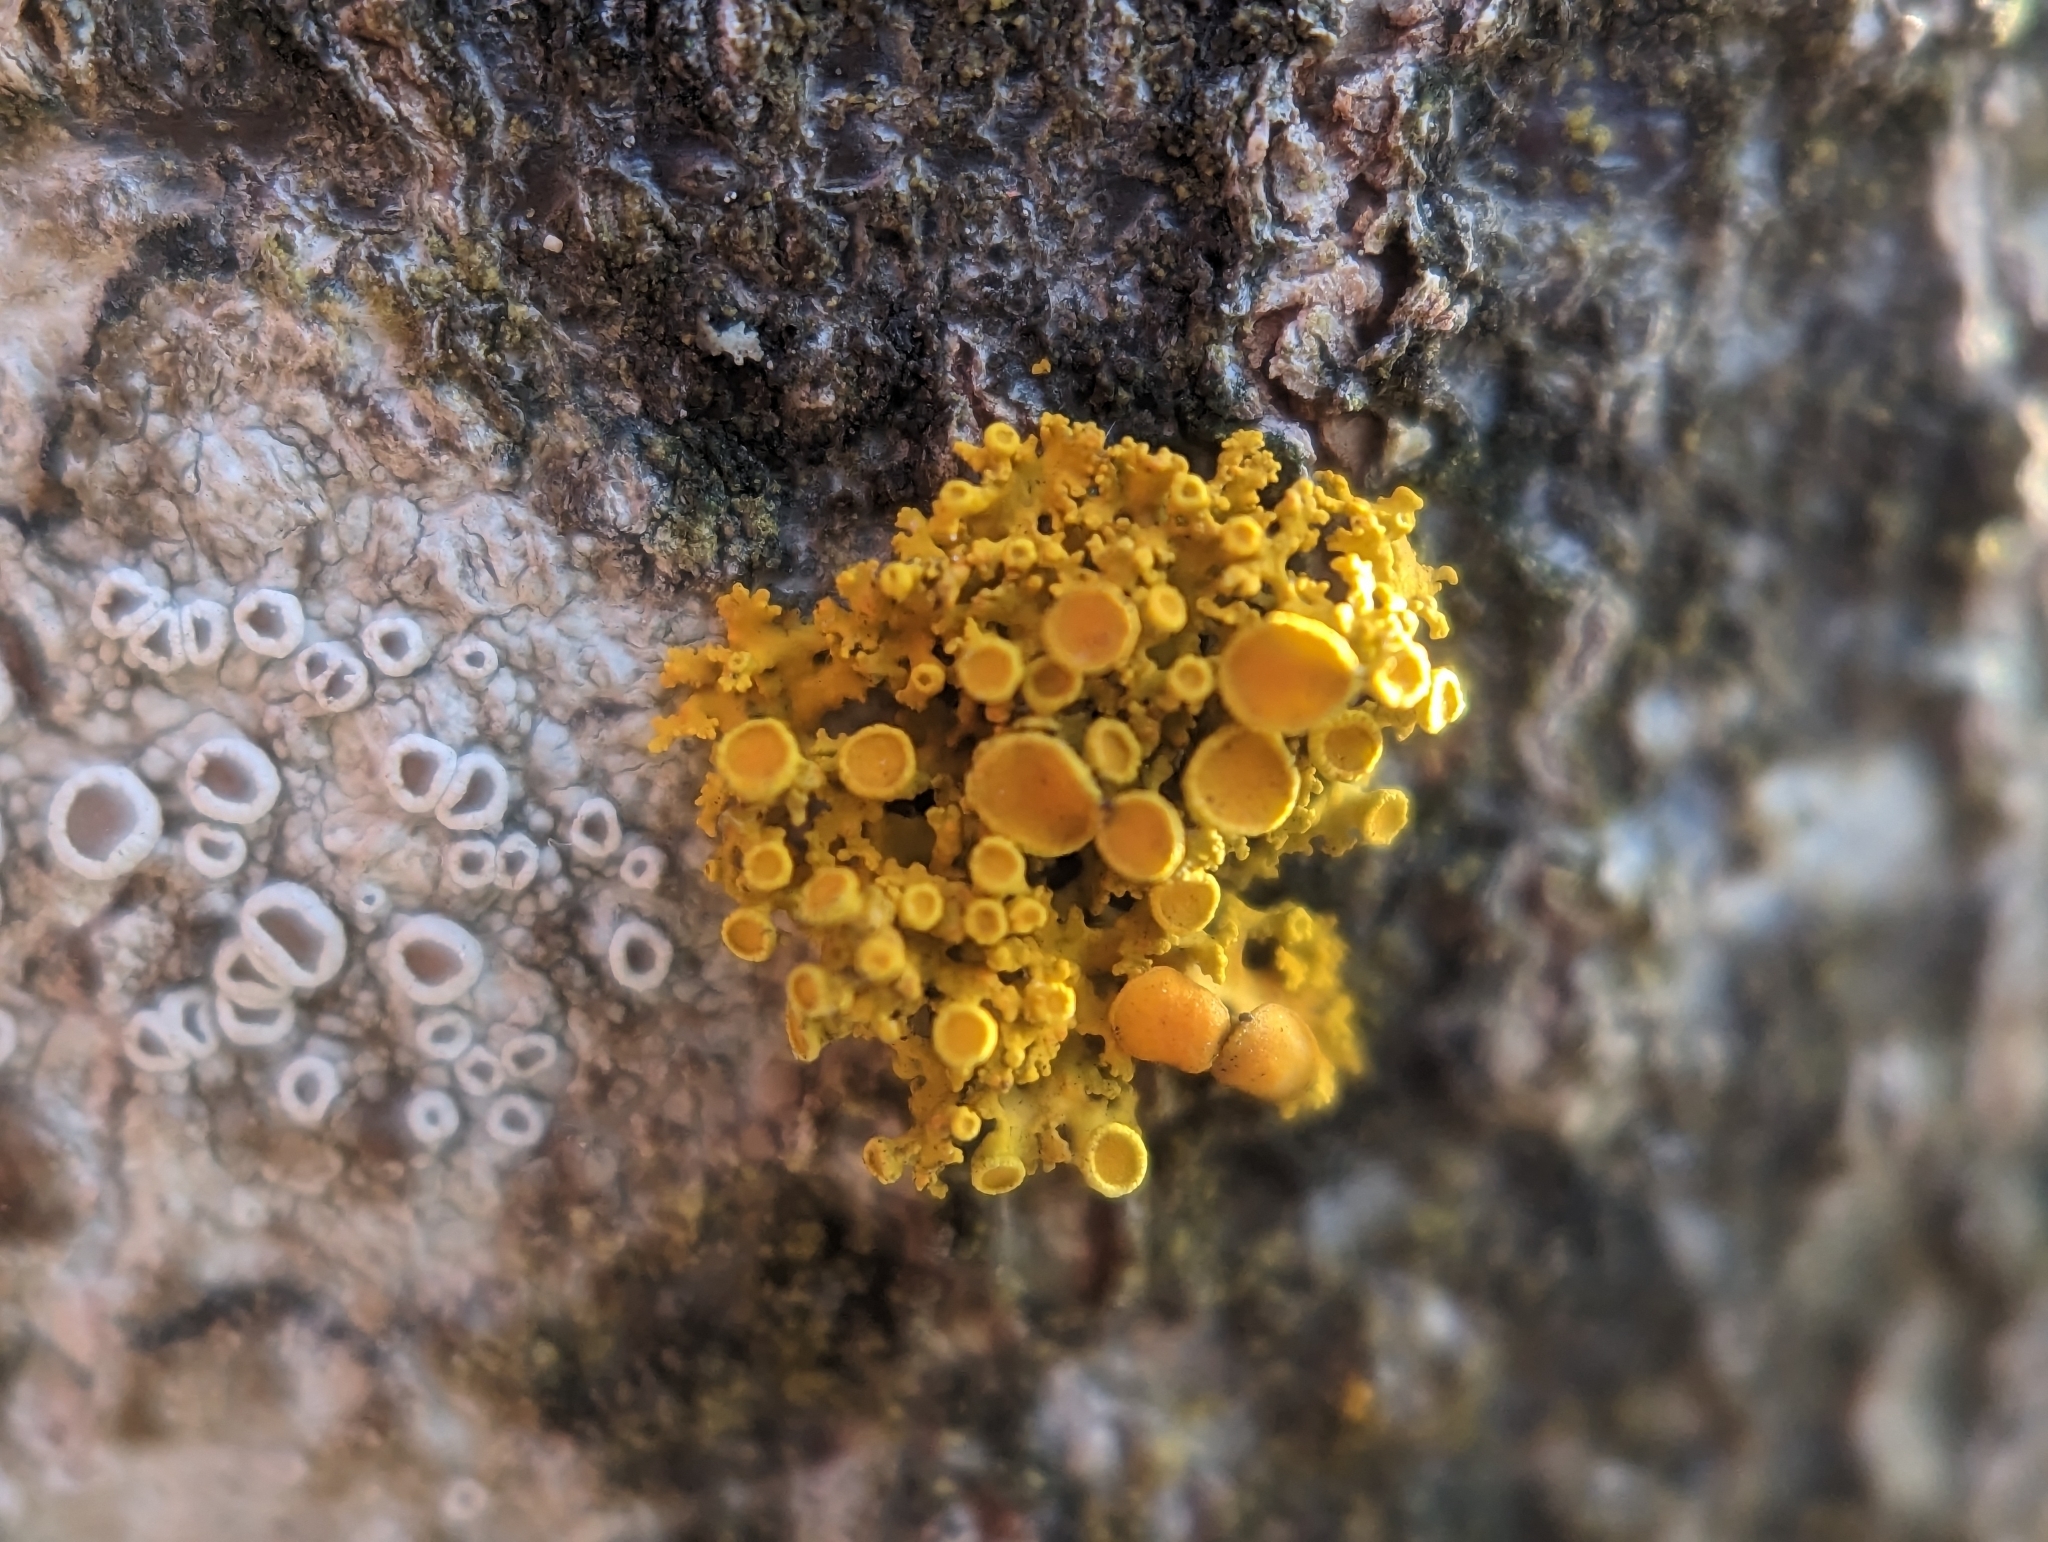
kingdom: Fungi
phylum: Ascomycota
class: Lecanoromycetes
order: Teloschistales
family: Teloschistaceae
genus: Polycauliona
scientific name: Polycauliona polycarpa
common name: Pin-cushion sunburst lichen
